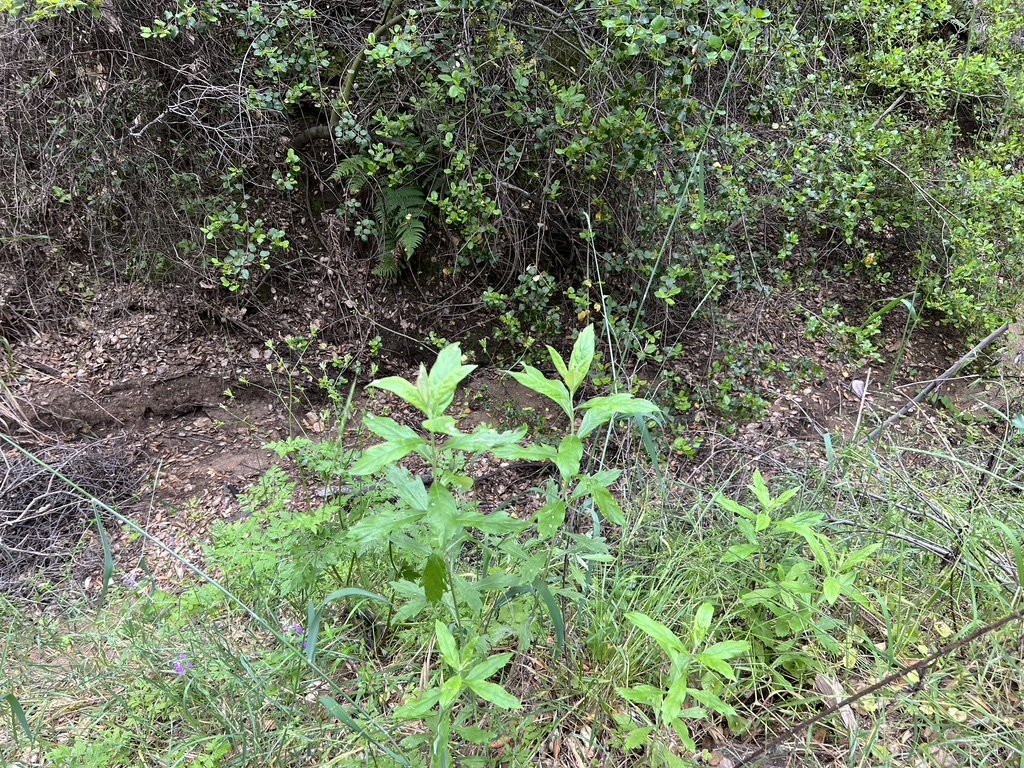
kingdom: Plantae
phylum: Tracheophyta
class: Magnoliopsida
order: Asterales
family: Asteraceae
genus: Artemisia
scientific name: Artemisia douglasiana
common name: Northwest mugwort
